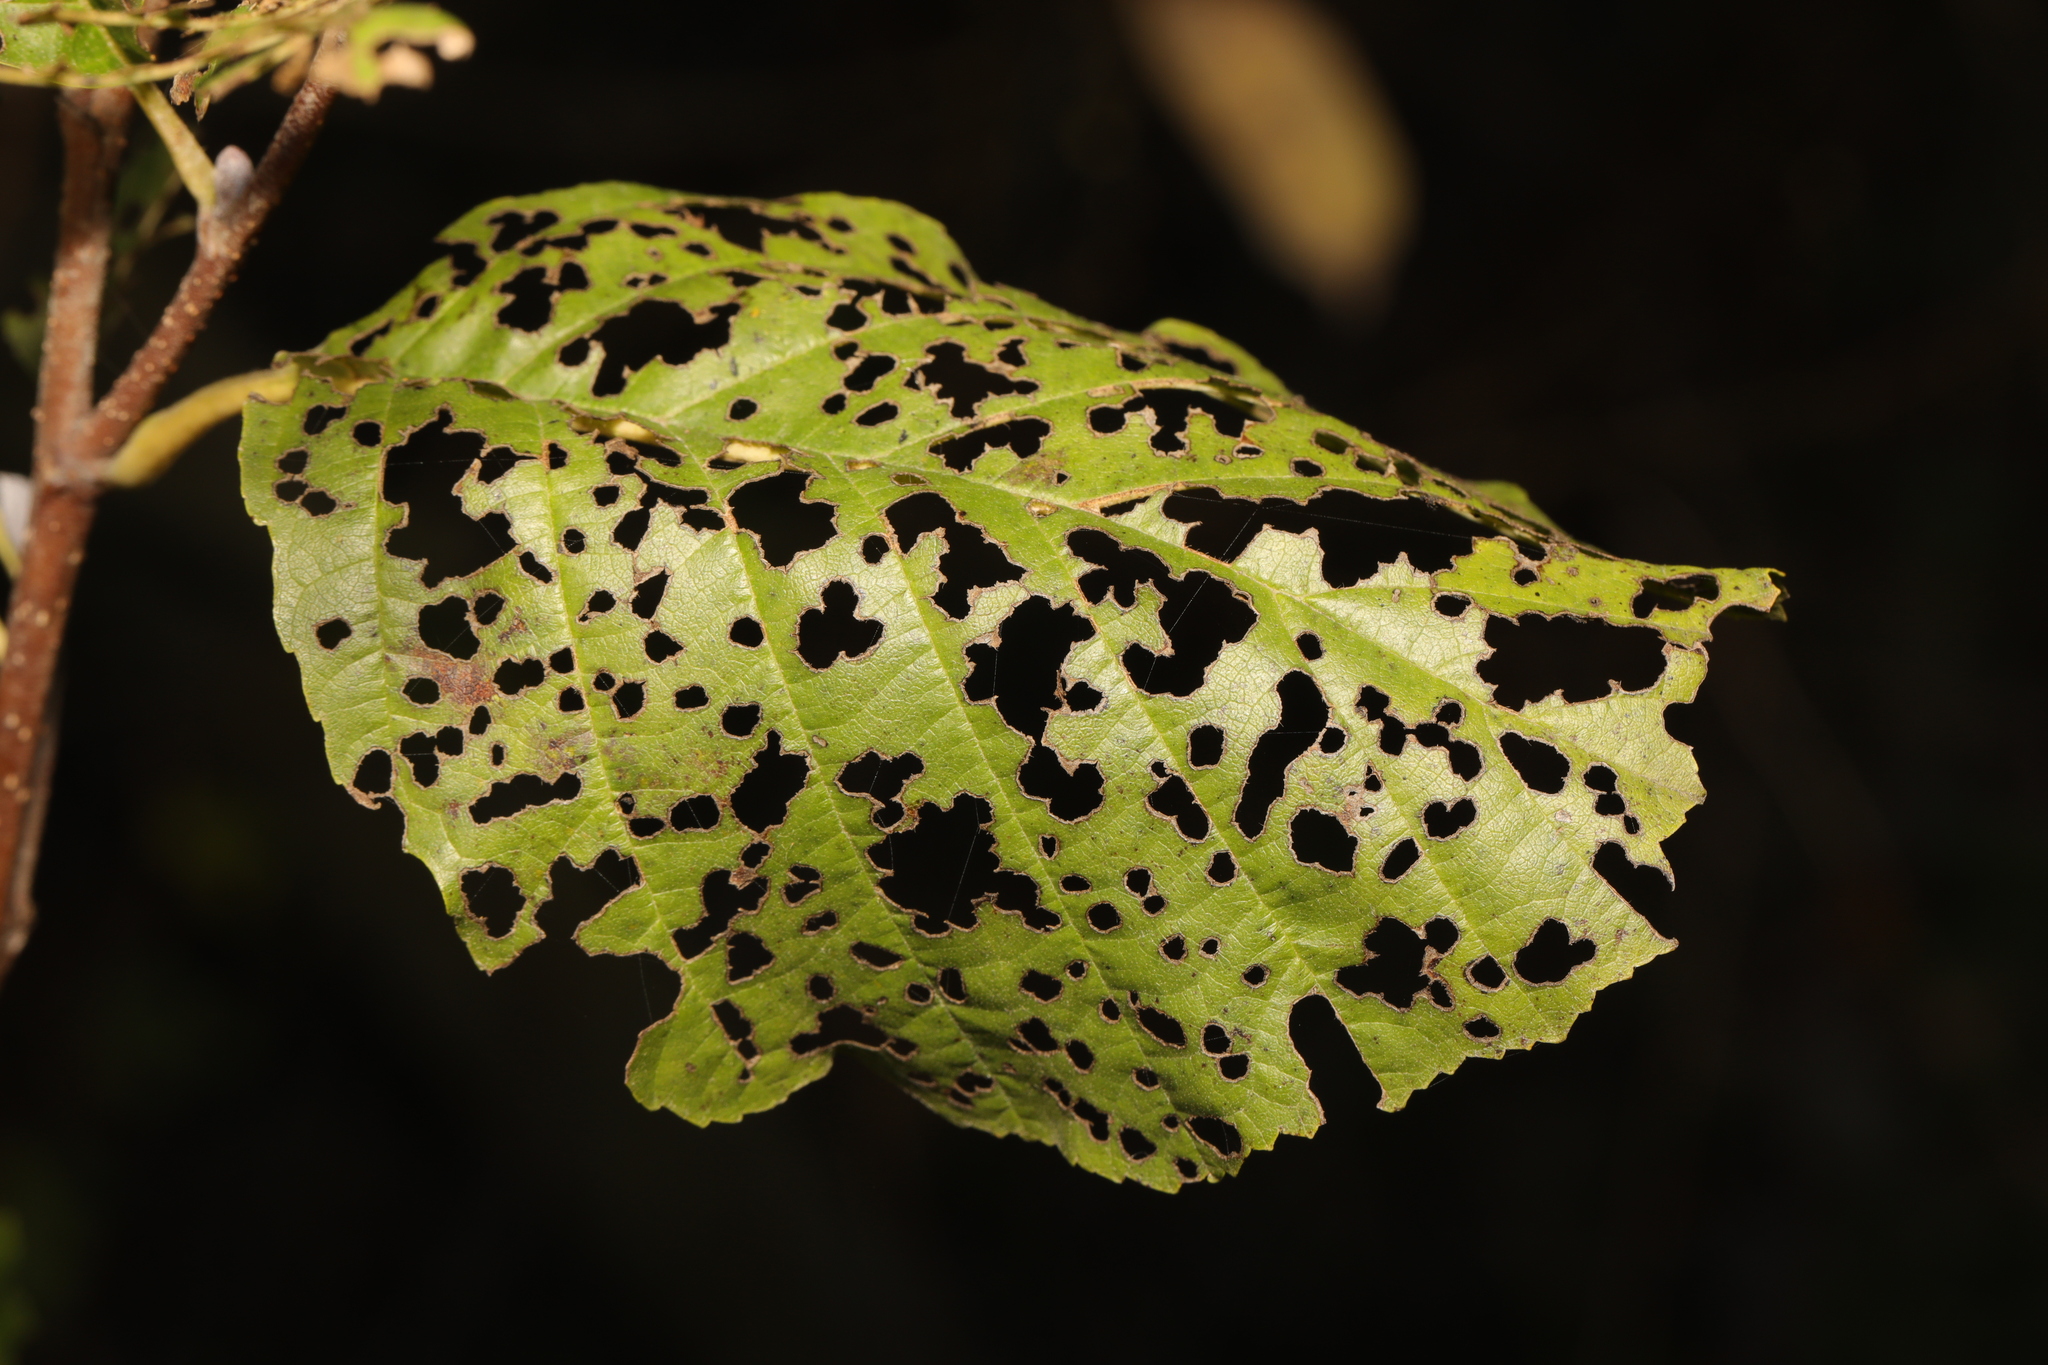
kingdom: Animalia
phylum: Arthropoda
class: Insecta
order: Coleoptera
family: Chrysomelidae
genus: Agelastica
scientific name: Agelastica alni
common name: Alder leaf beetle
